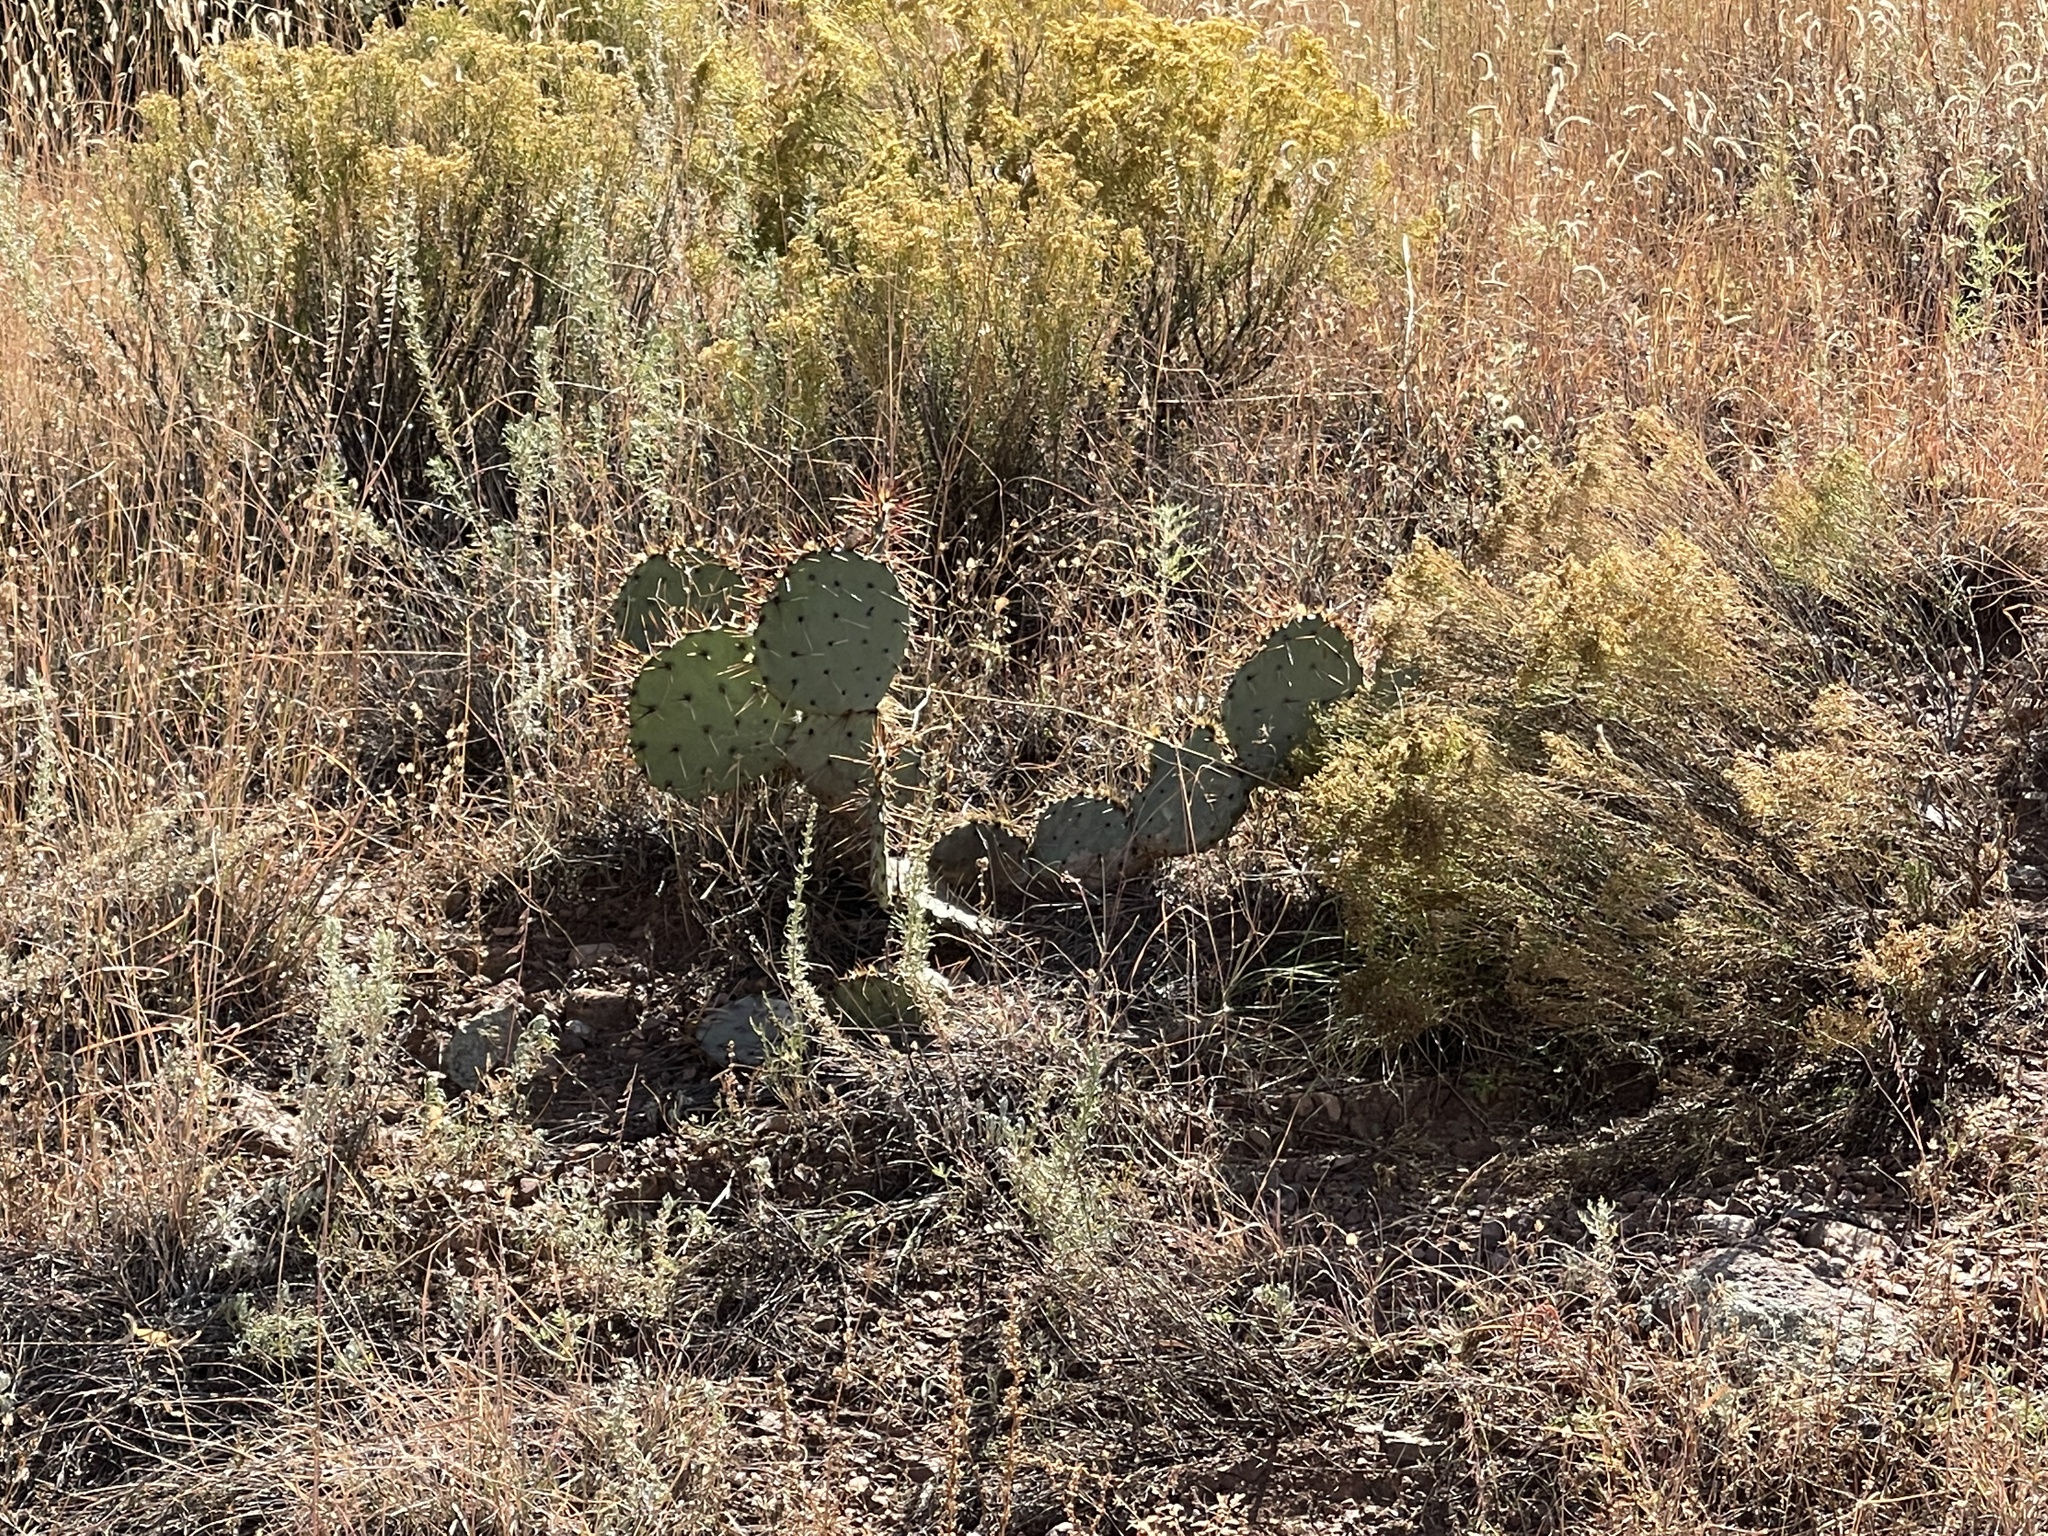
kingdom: Plantae
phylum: Tracheophyta
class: Magnoliopsida
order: Caryophyllales
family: Cactaceae
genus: Opuntia
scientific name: Opuntia engelmannii
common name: Cactus-apple
